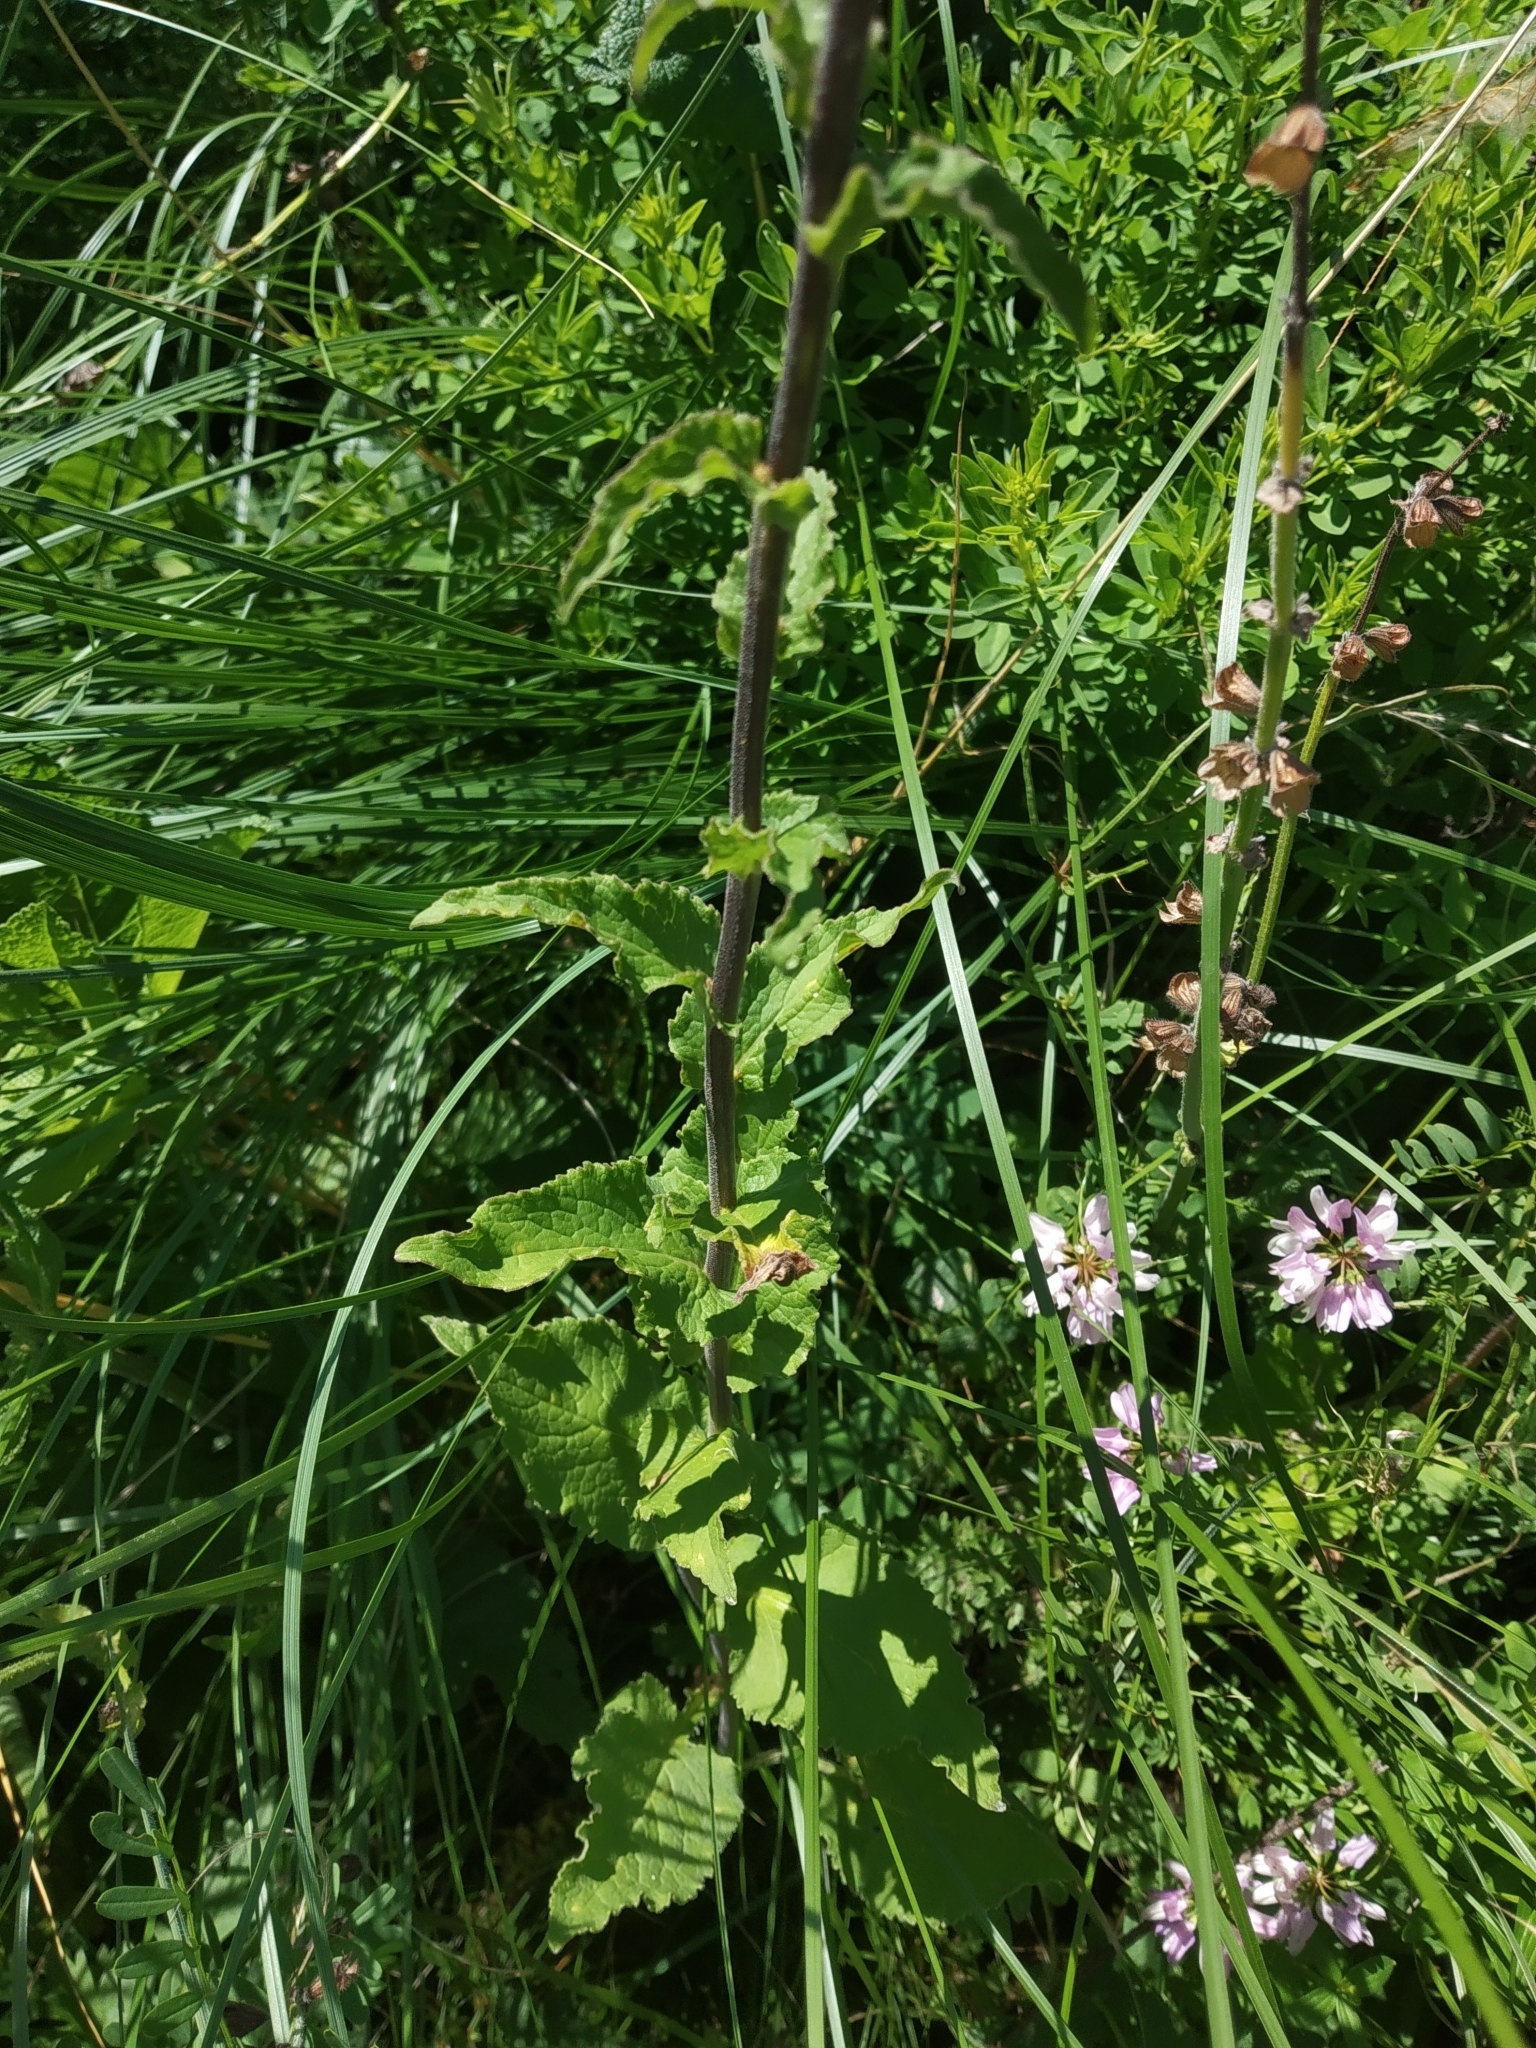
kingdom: Plantae
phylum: Tracheophyta
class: Magnoliopsida
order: Asterales
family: Campanulaceae
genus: Campanula
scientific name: Campanula bononiensis
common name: Pale bellflower
